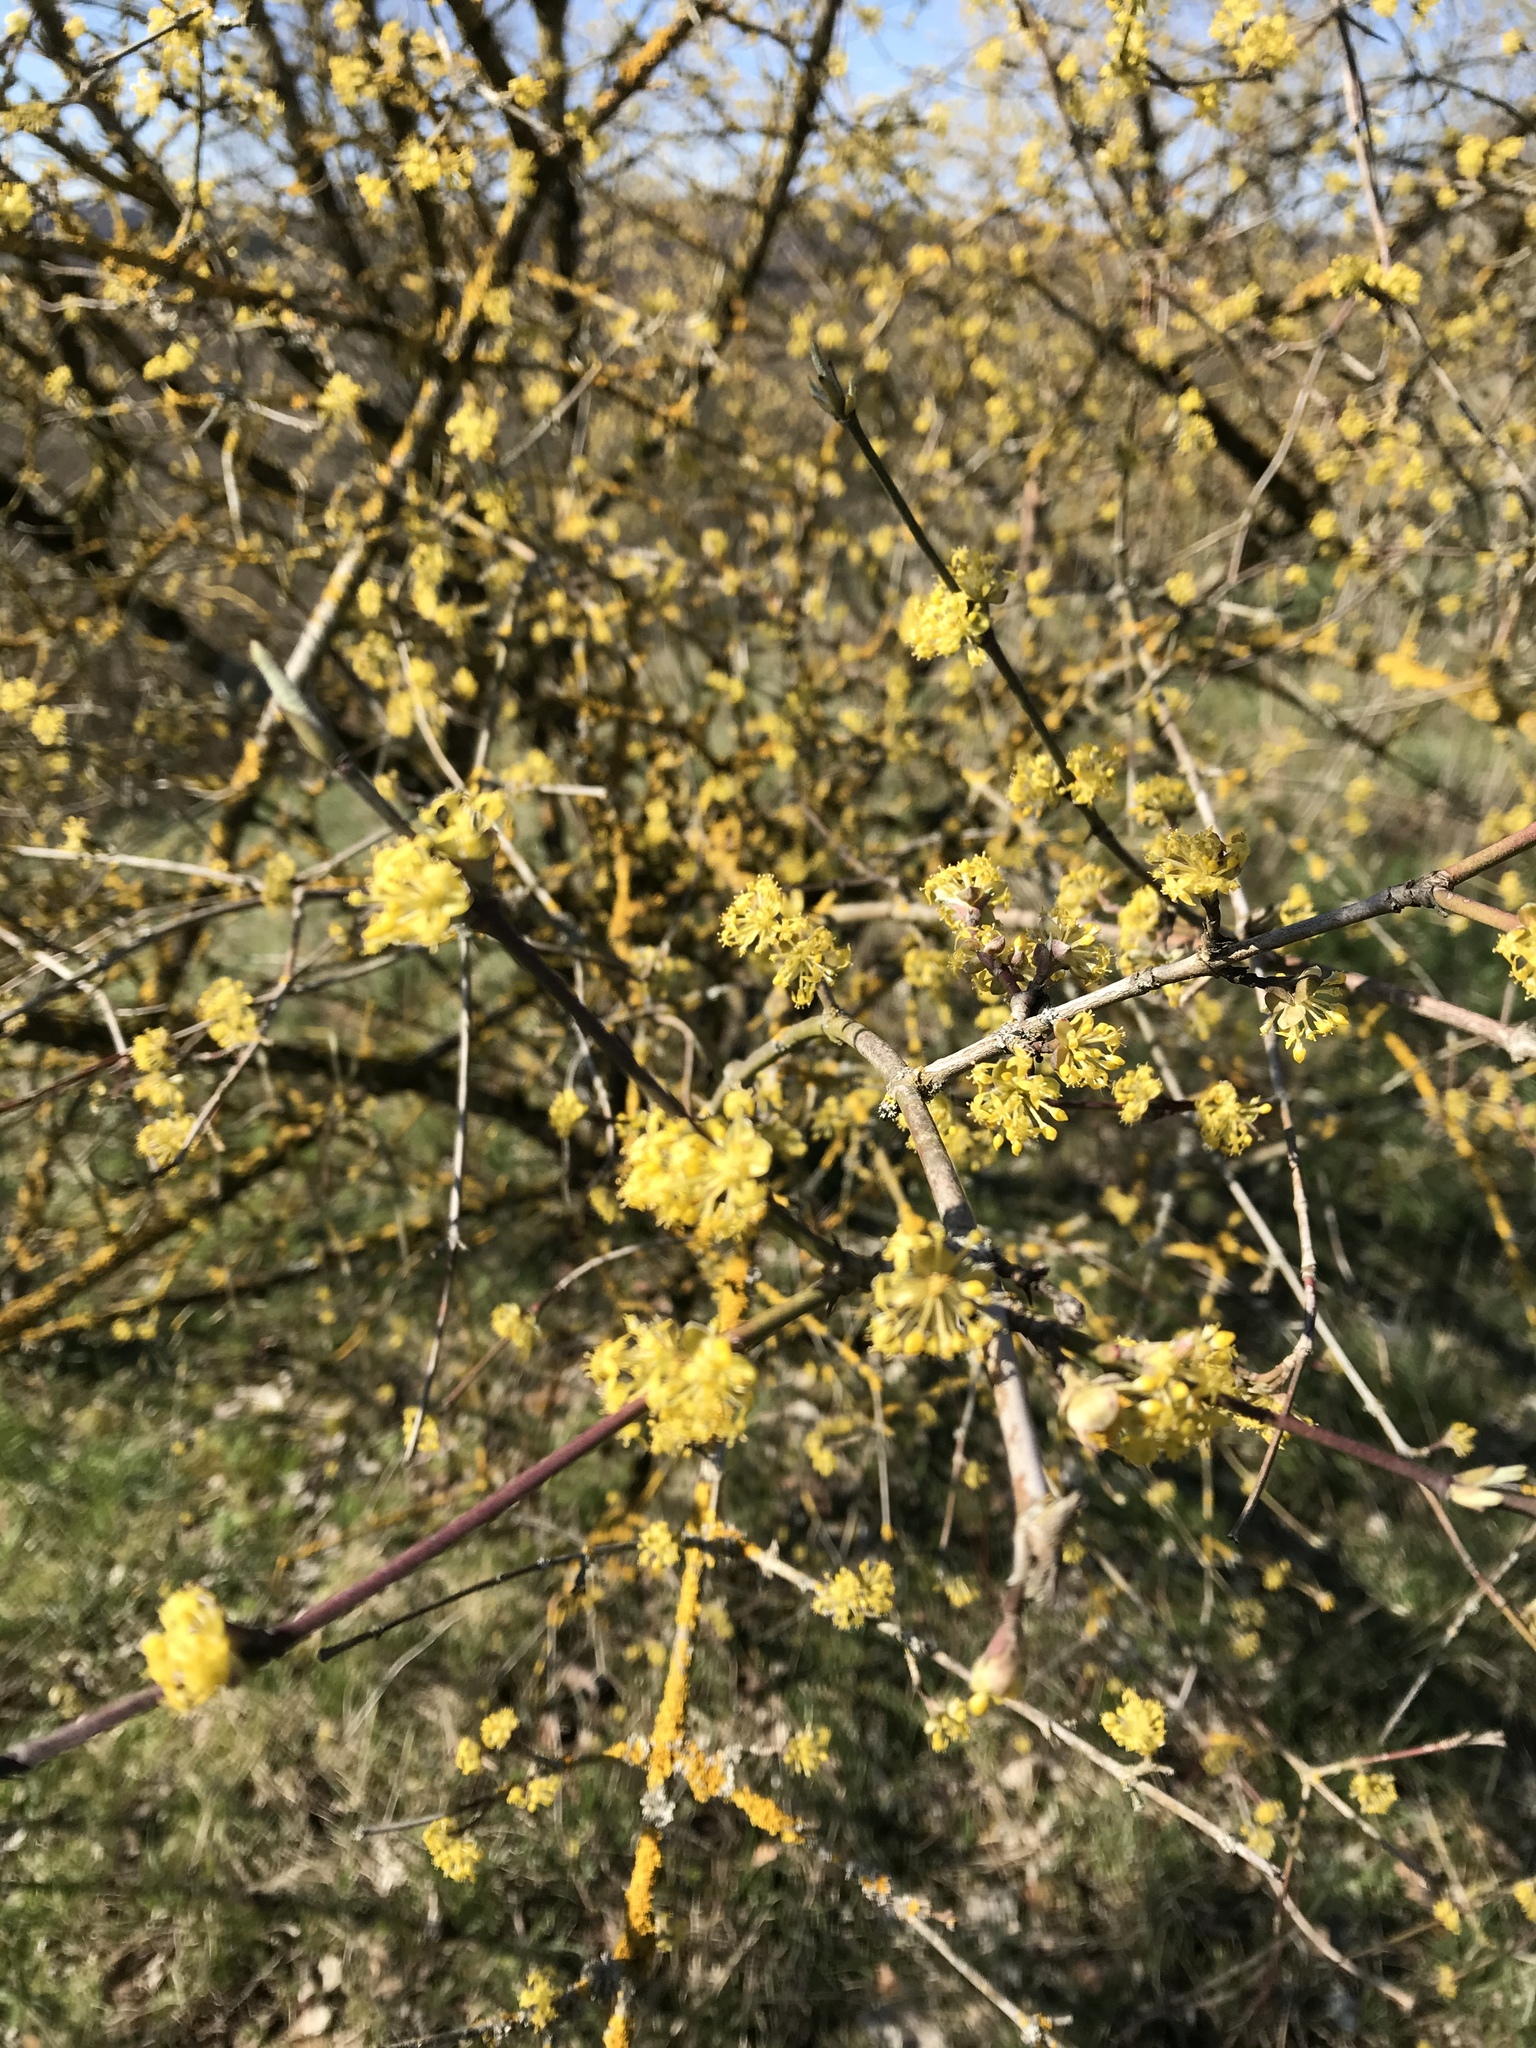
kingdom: Plantae
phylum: Tracheophyta
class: Magnoliopsida
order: Cornales
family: Cornaceae
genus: Cornus
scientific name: Cornus mas
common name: Cornelian-cherry
